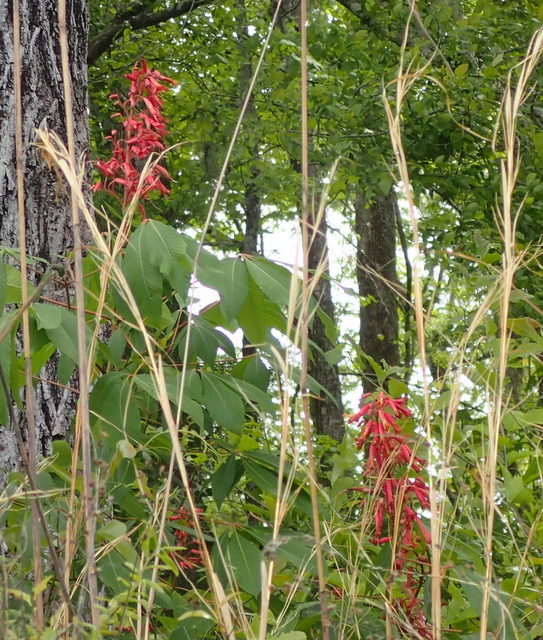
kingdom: Plantae
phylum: Tracheophyta
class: Magnoliopsida
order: Sapindales
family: Sapindaceae
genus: Aesculus
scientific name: Aesculus pavia
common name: Red buckeye
